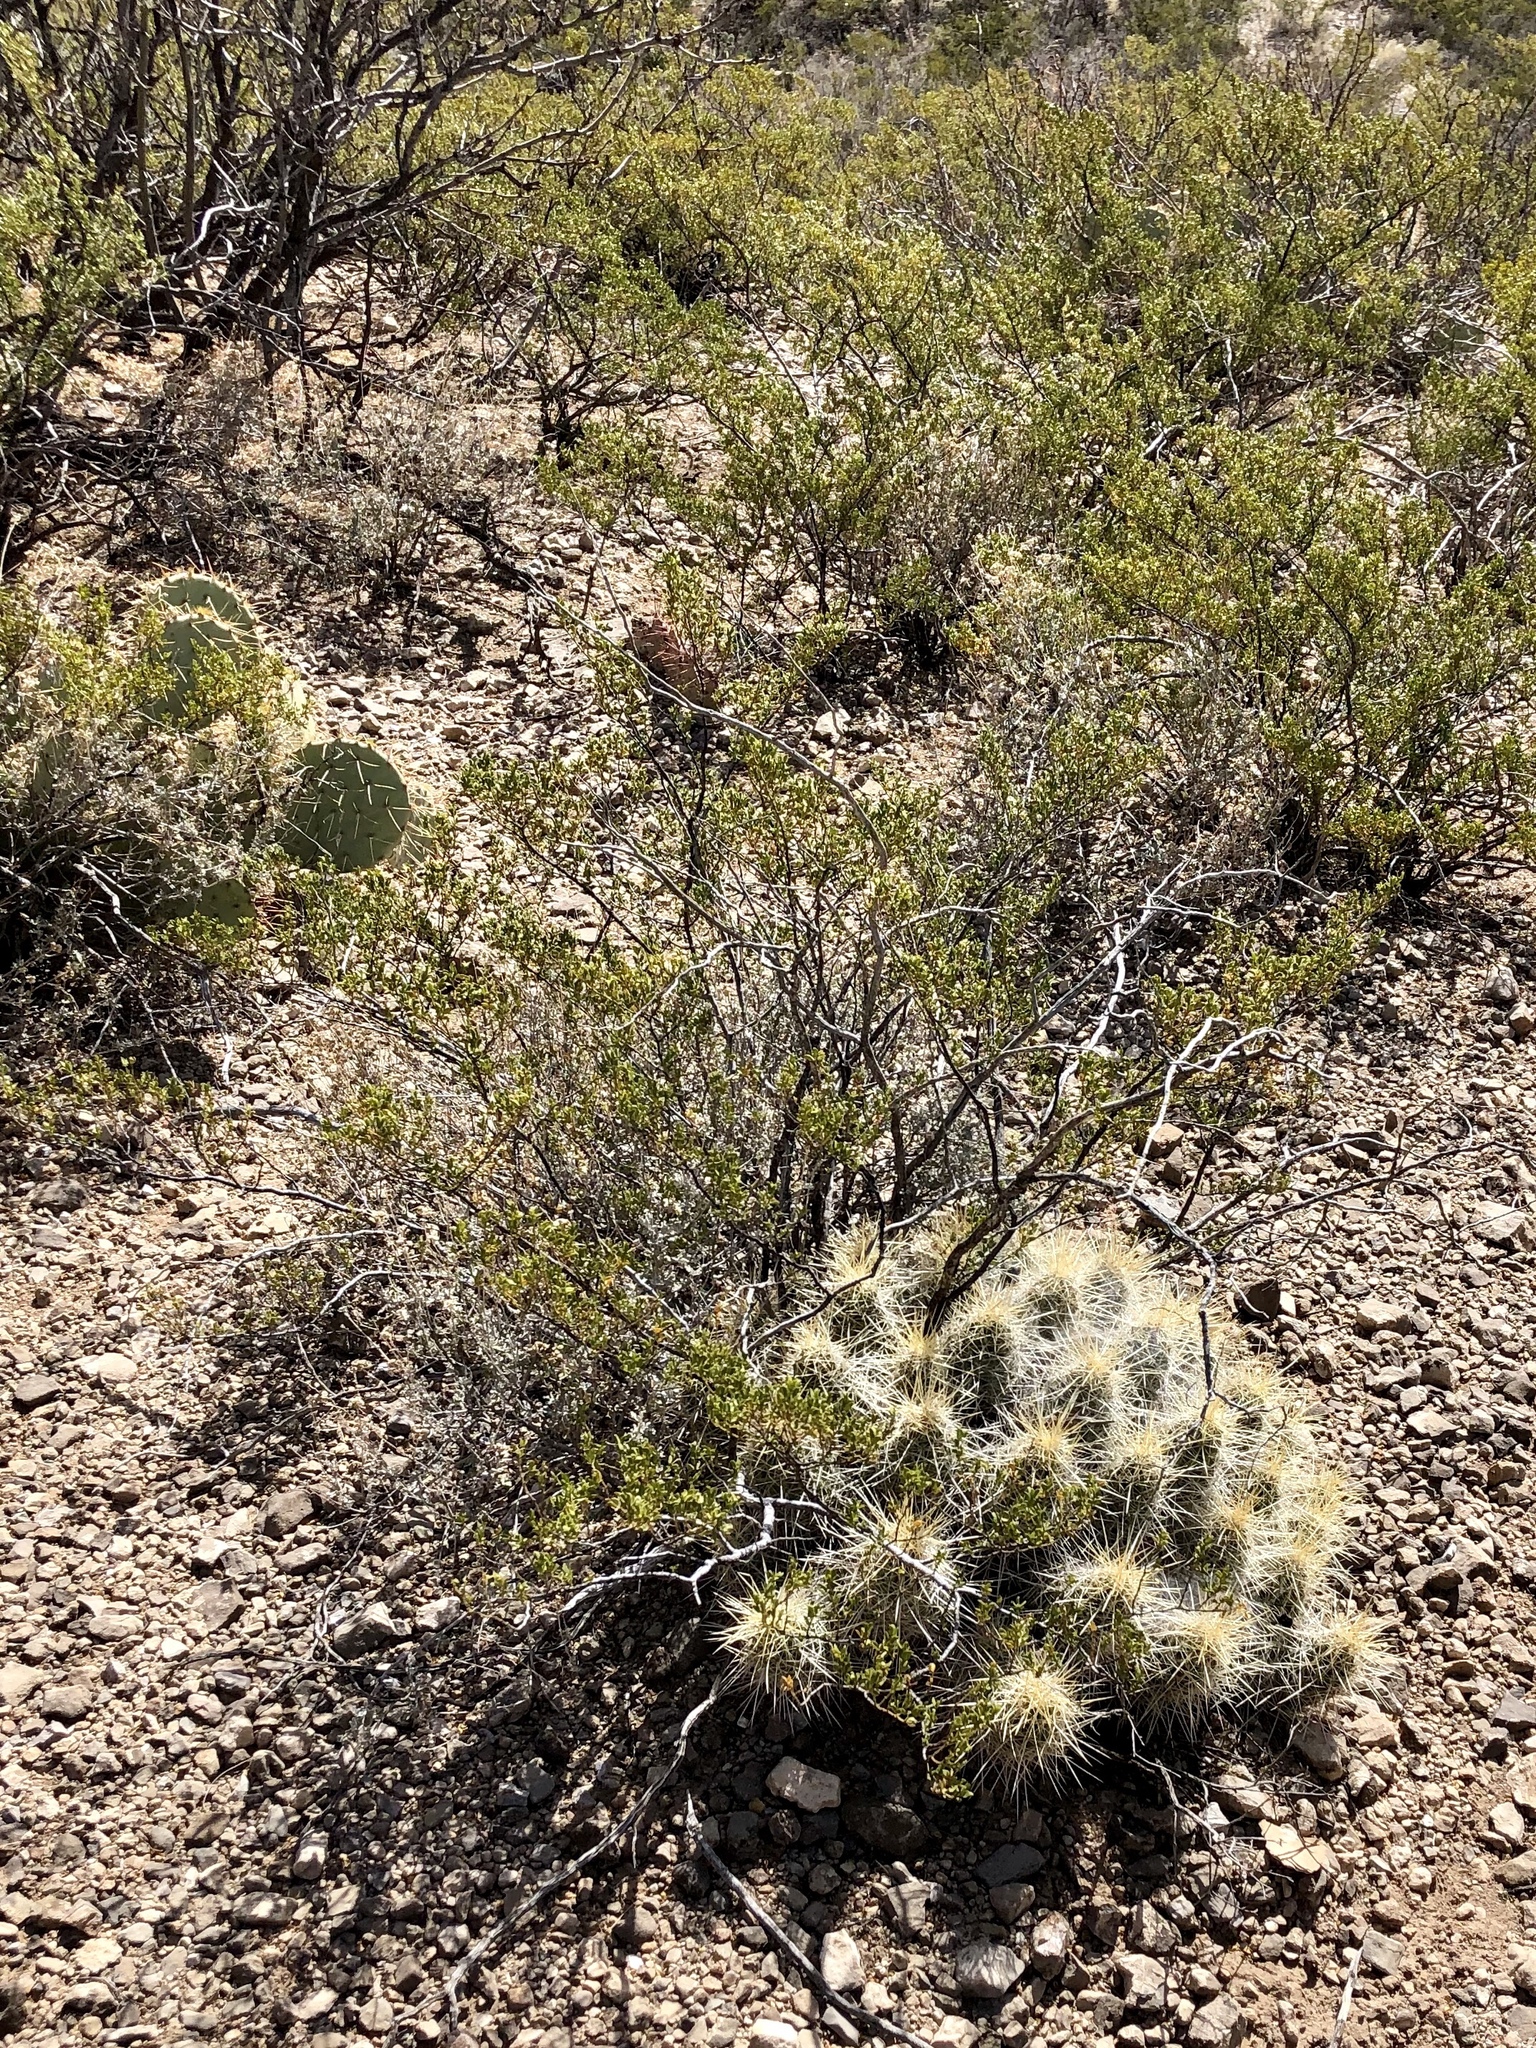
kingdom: Plantae
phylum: Tracheophyta
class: Magnoliopsida
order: Zygophyllales
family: Zygophyllaceae
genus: Larrea
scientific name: Larrea tridentata
